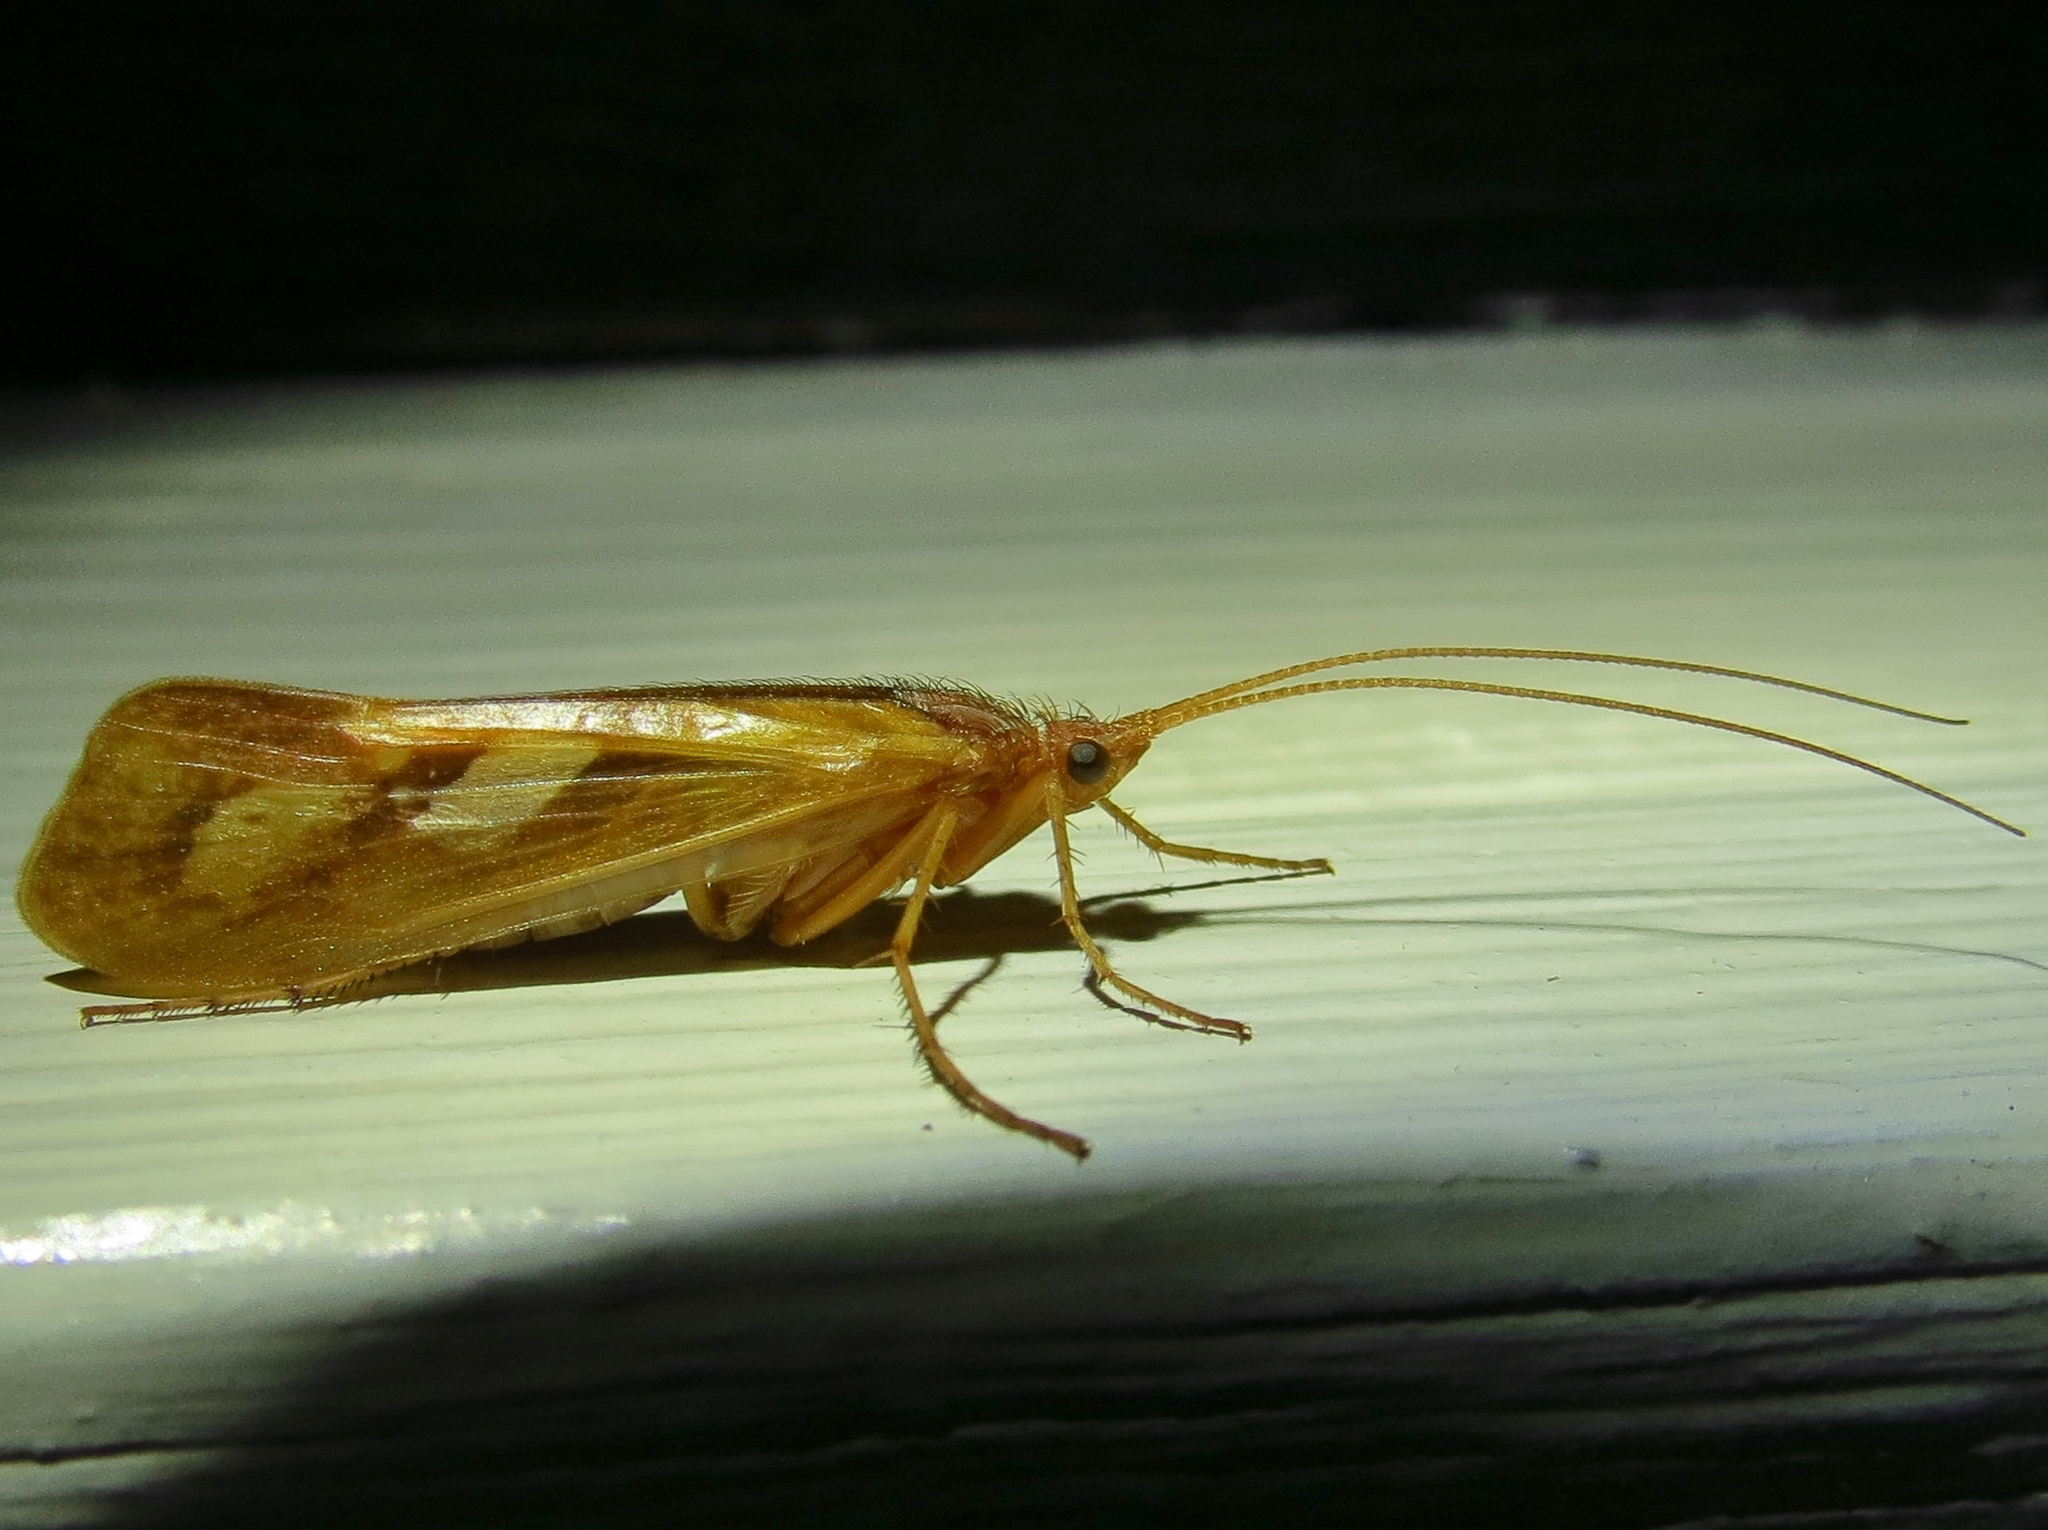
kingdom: Animalia
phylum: Arthropoda
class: Insecta
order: Trichoptera
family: Limnephilidae
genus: Limnephilus
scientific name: Limnephilus rhombicus
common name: Diamond northern caddisfly
